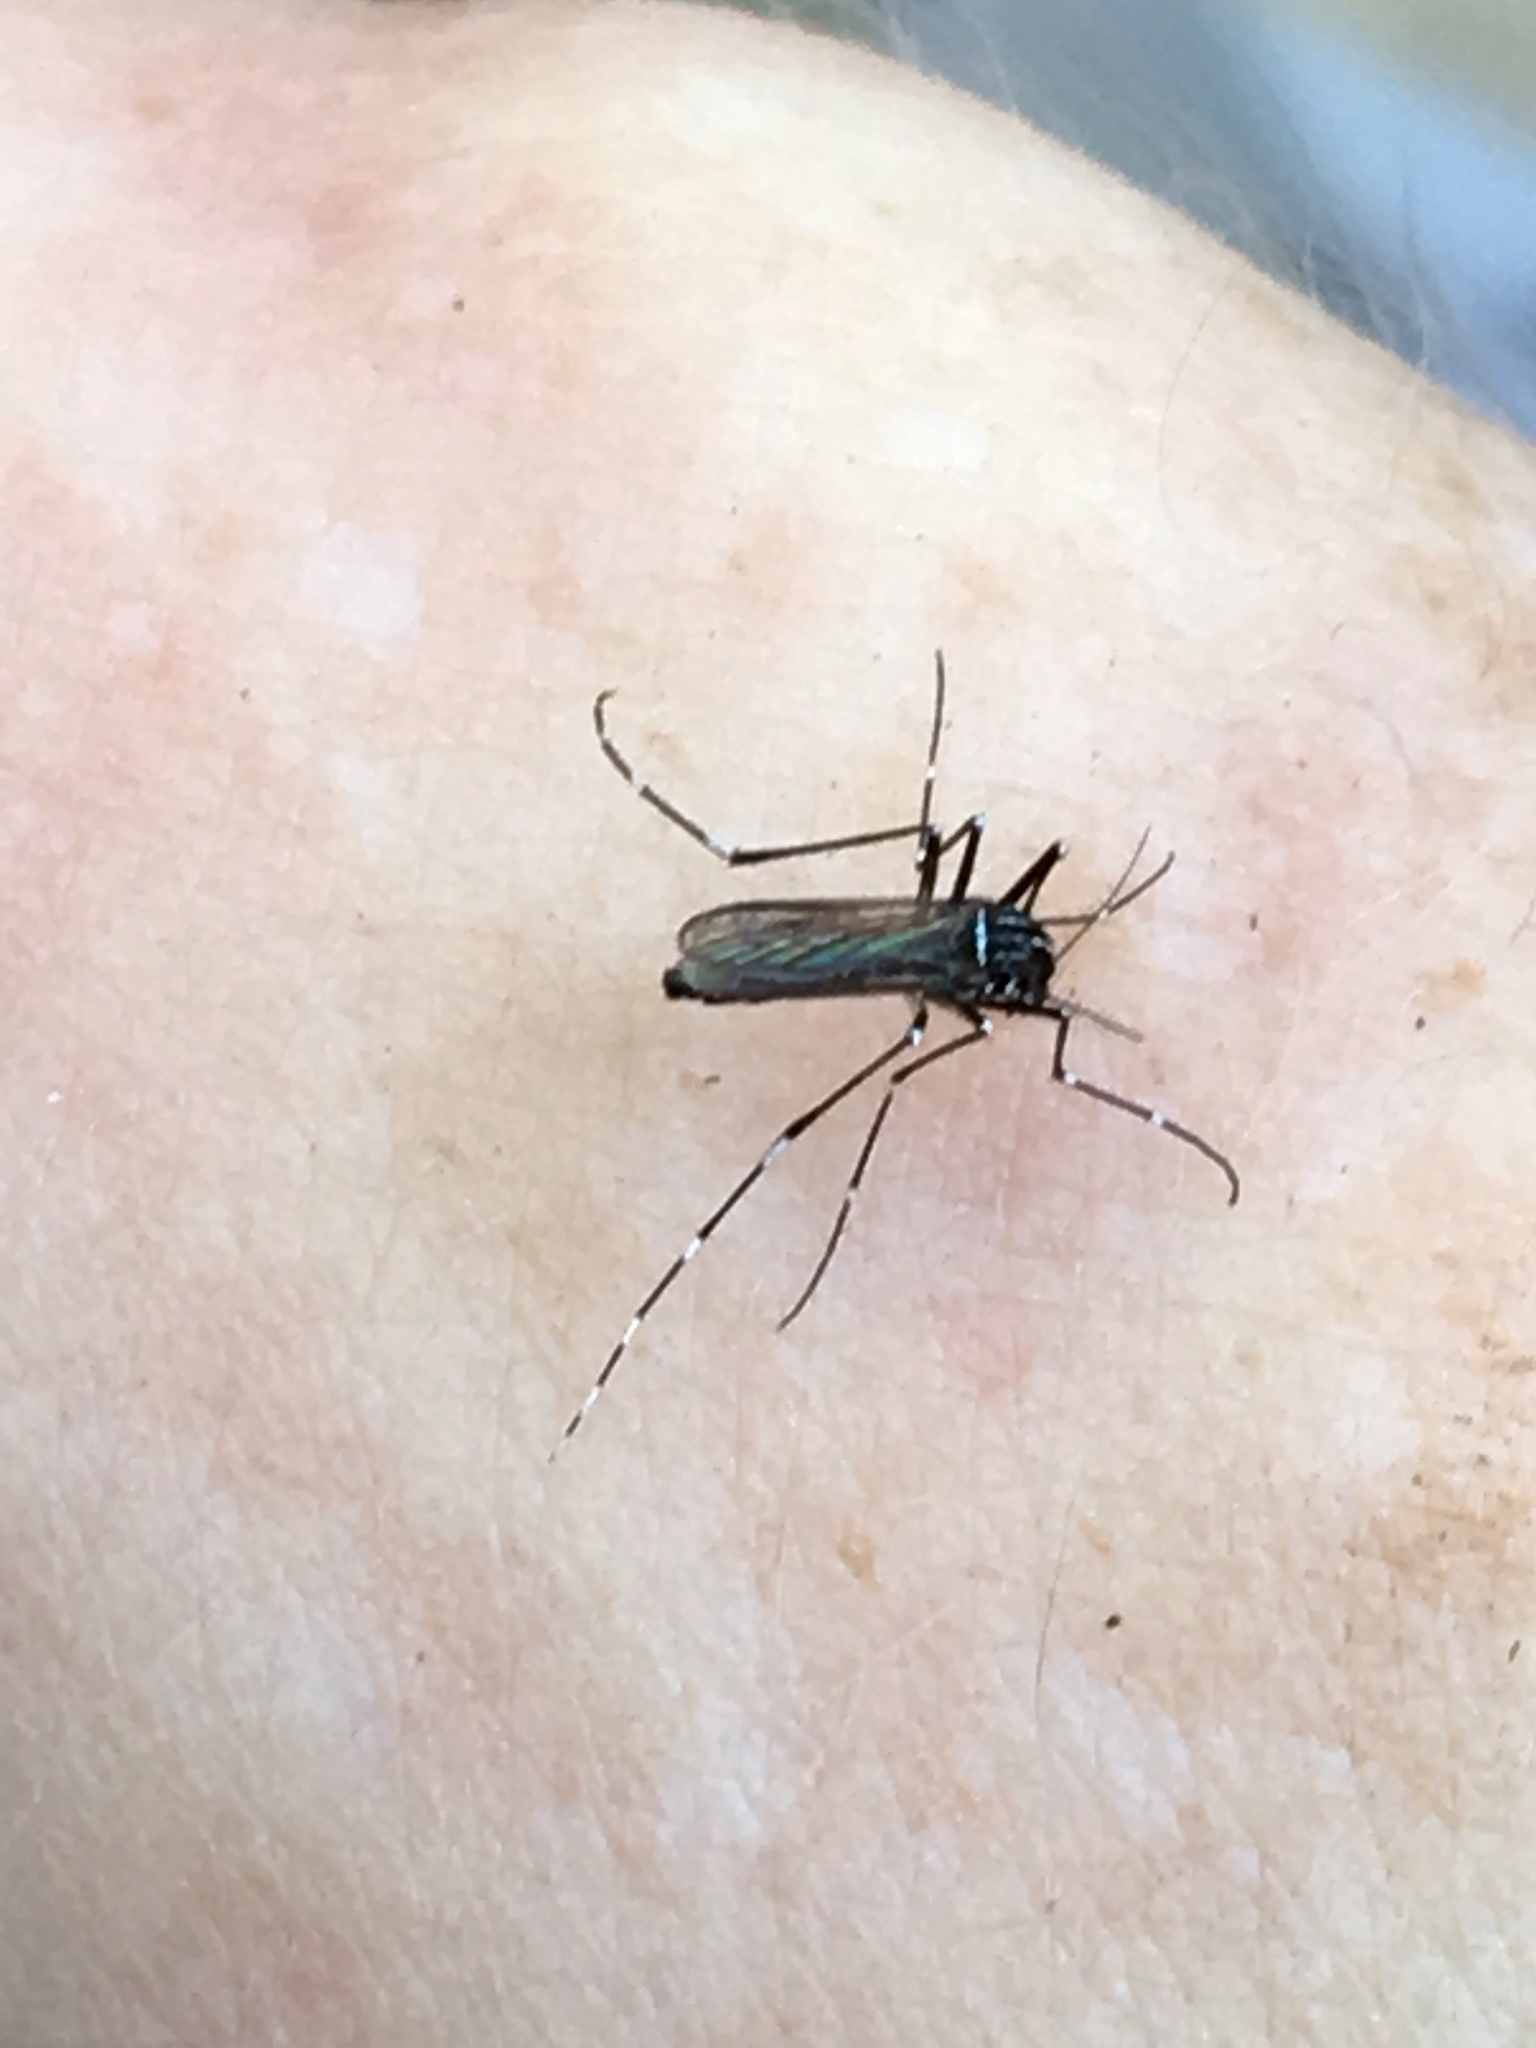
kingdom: Animalia
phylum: Arthropoda
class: Insecta
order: Diptera
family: Culicidae
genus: Aedes
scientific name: Aedes albopictus
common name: Tiger mosquito
